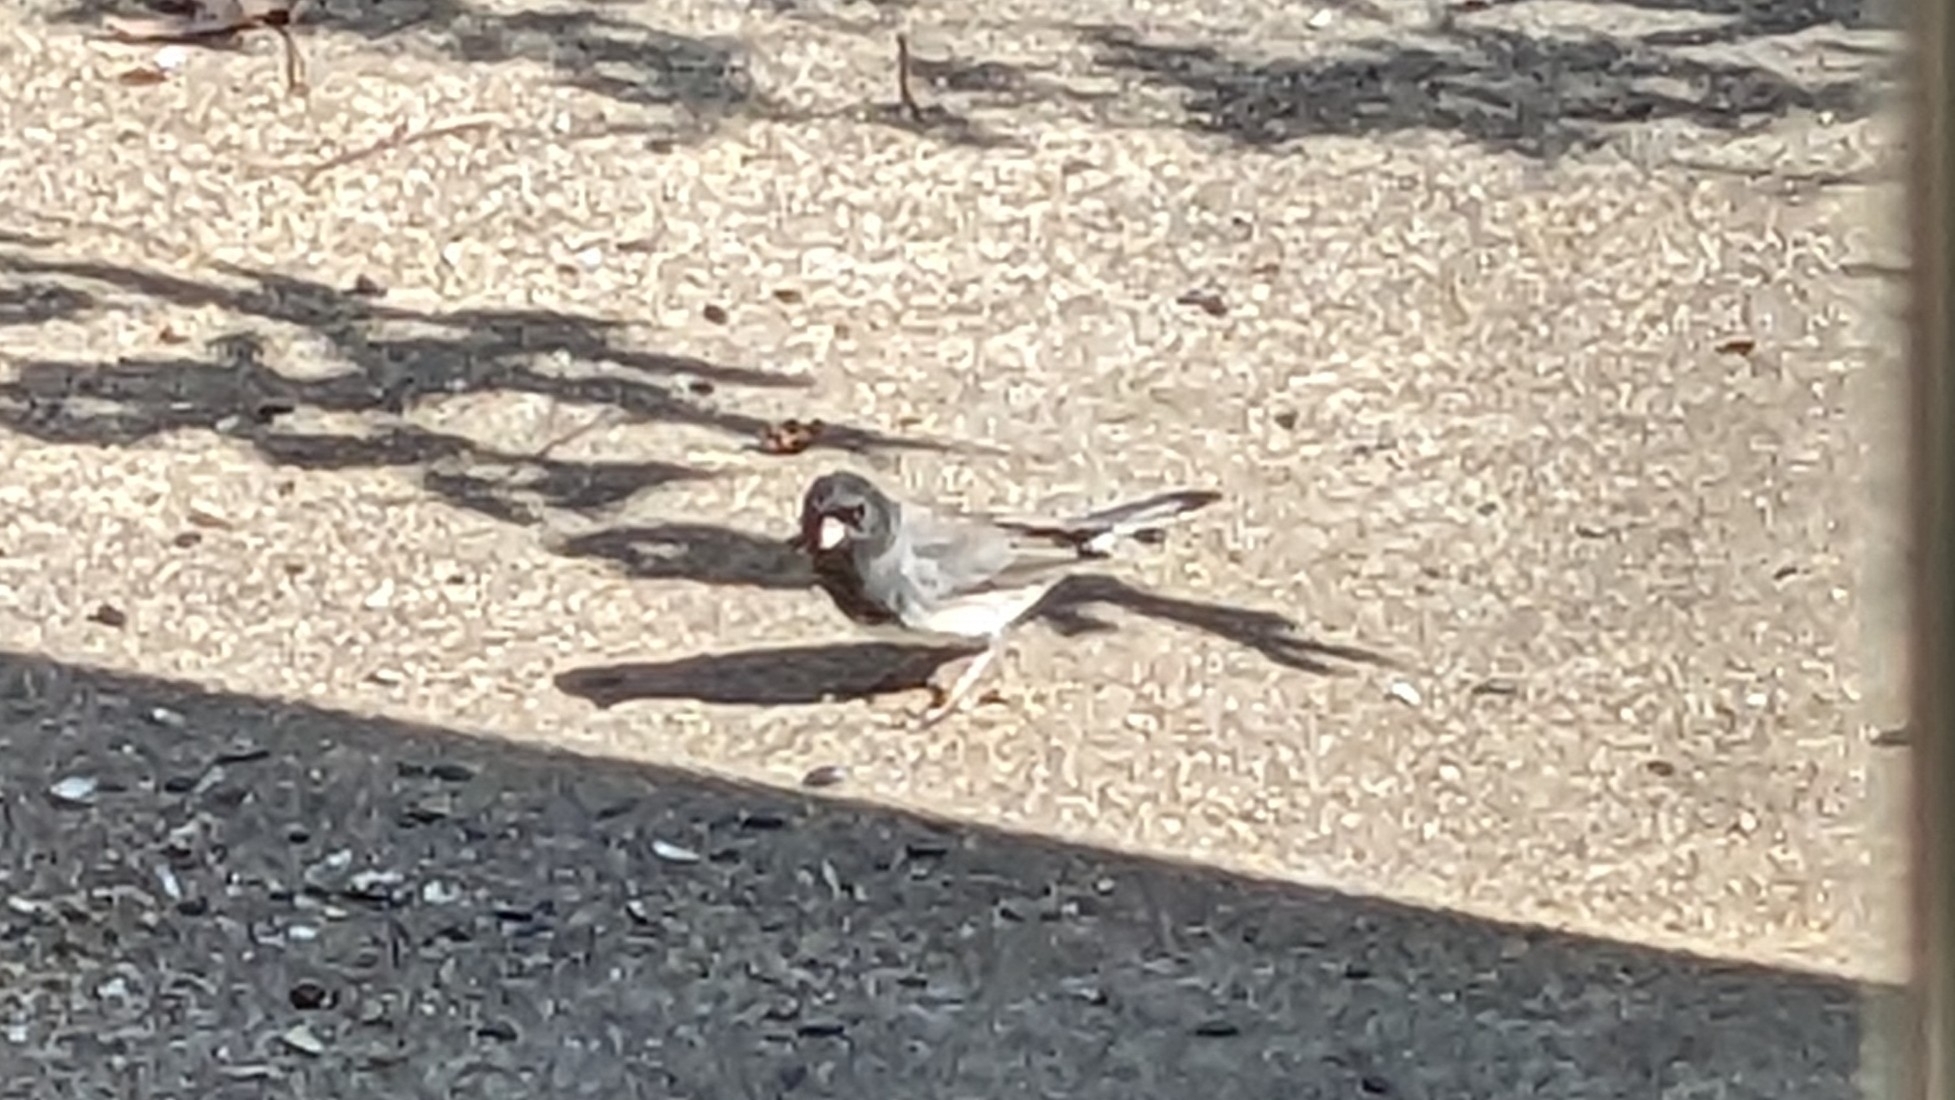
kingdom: Animalia
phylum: Chordata
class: Aves
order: Passeriformes
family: Passerellidae
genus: Junco
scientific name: Junco hyemalis
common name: Dark-eyed junco
